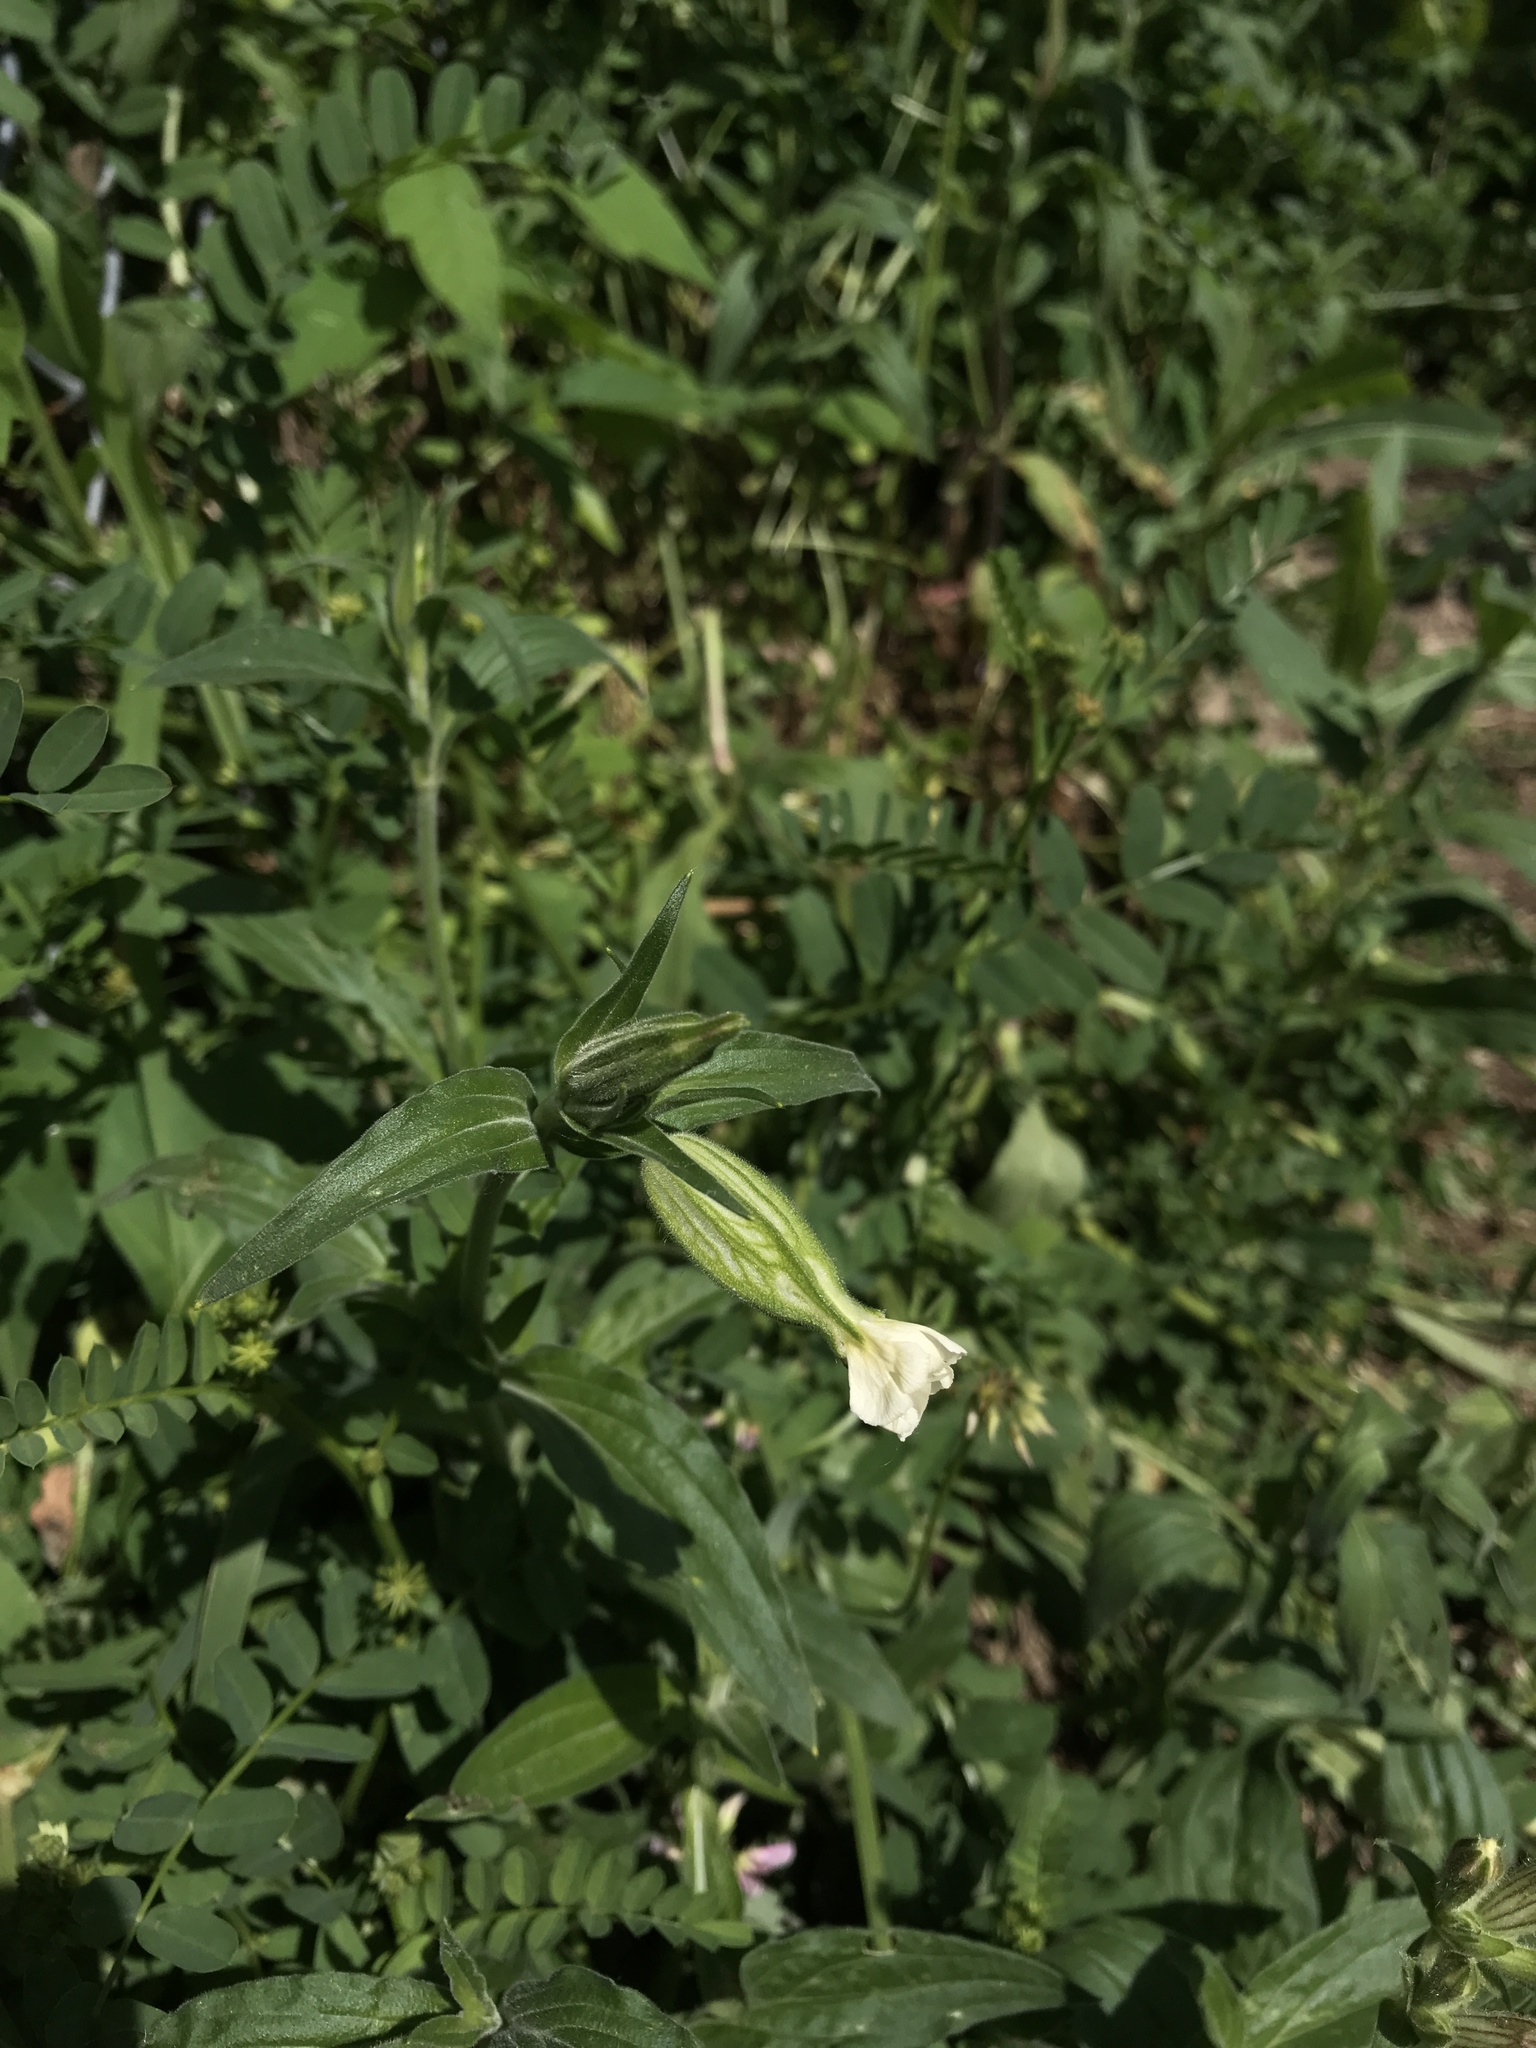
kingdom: Plantae
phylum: Tracheophyta
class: Magnoliopsida
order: Caryophyllales
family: Caryophyllaceae
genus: Silene
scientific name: Silene latifolia
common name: White campion
